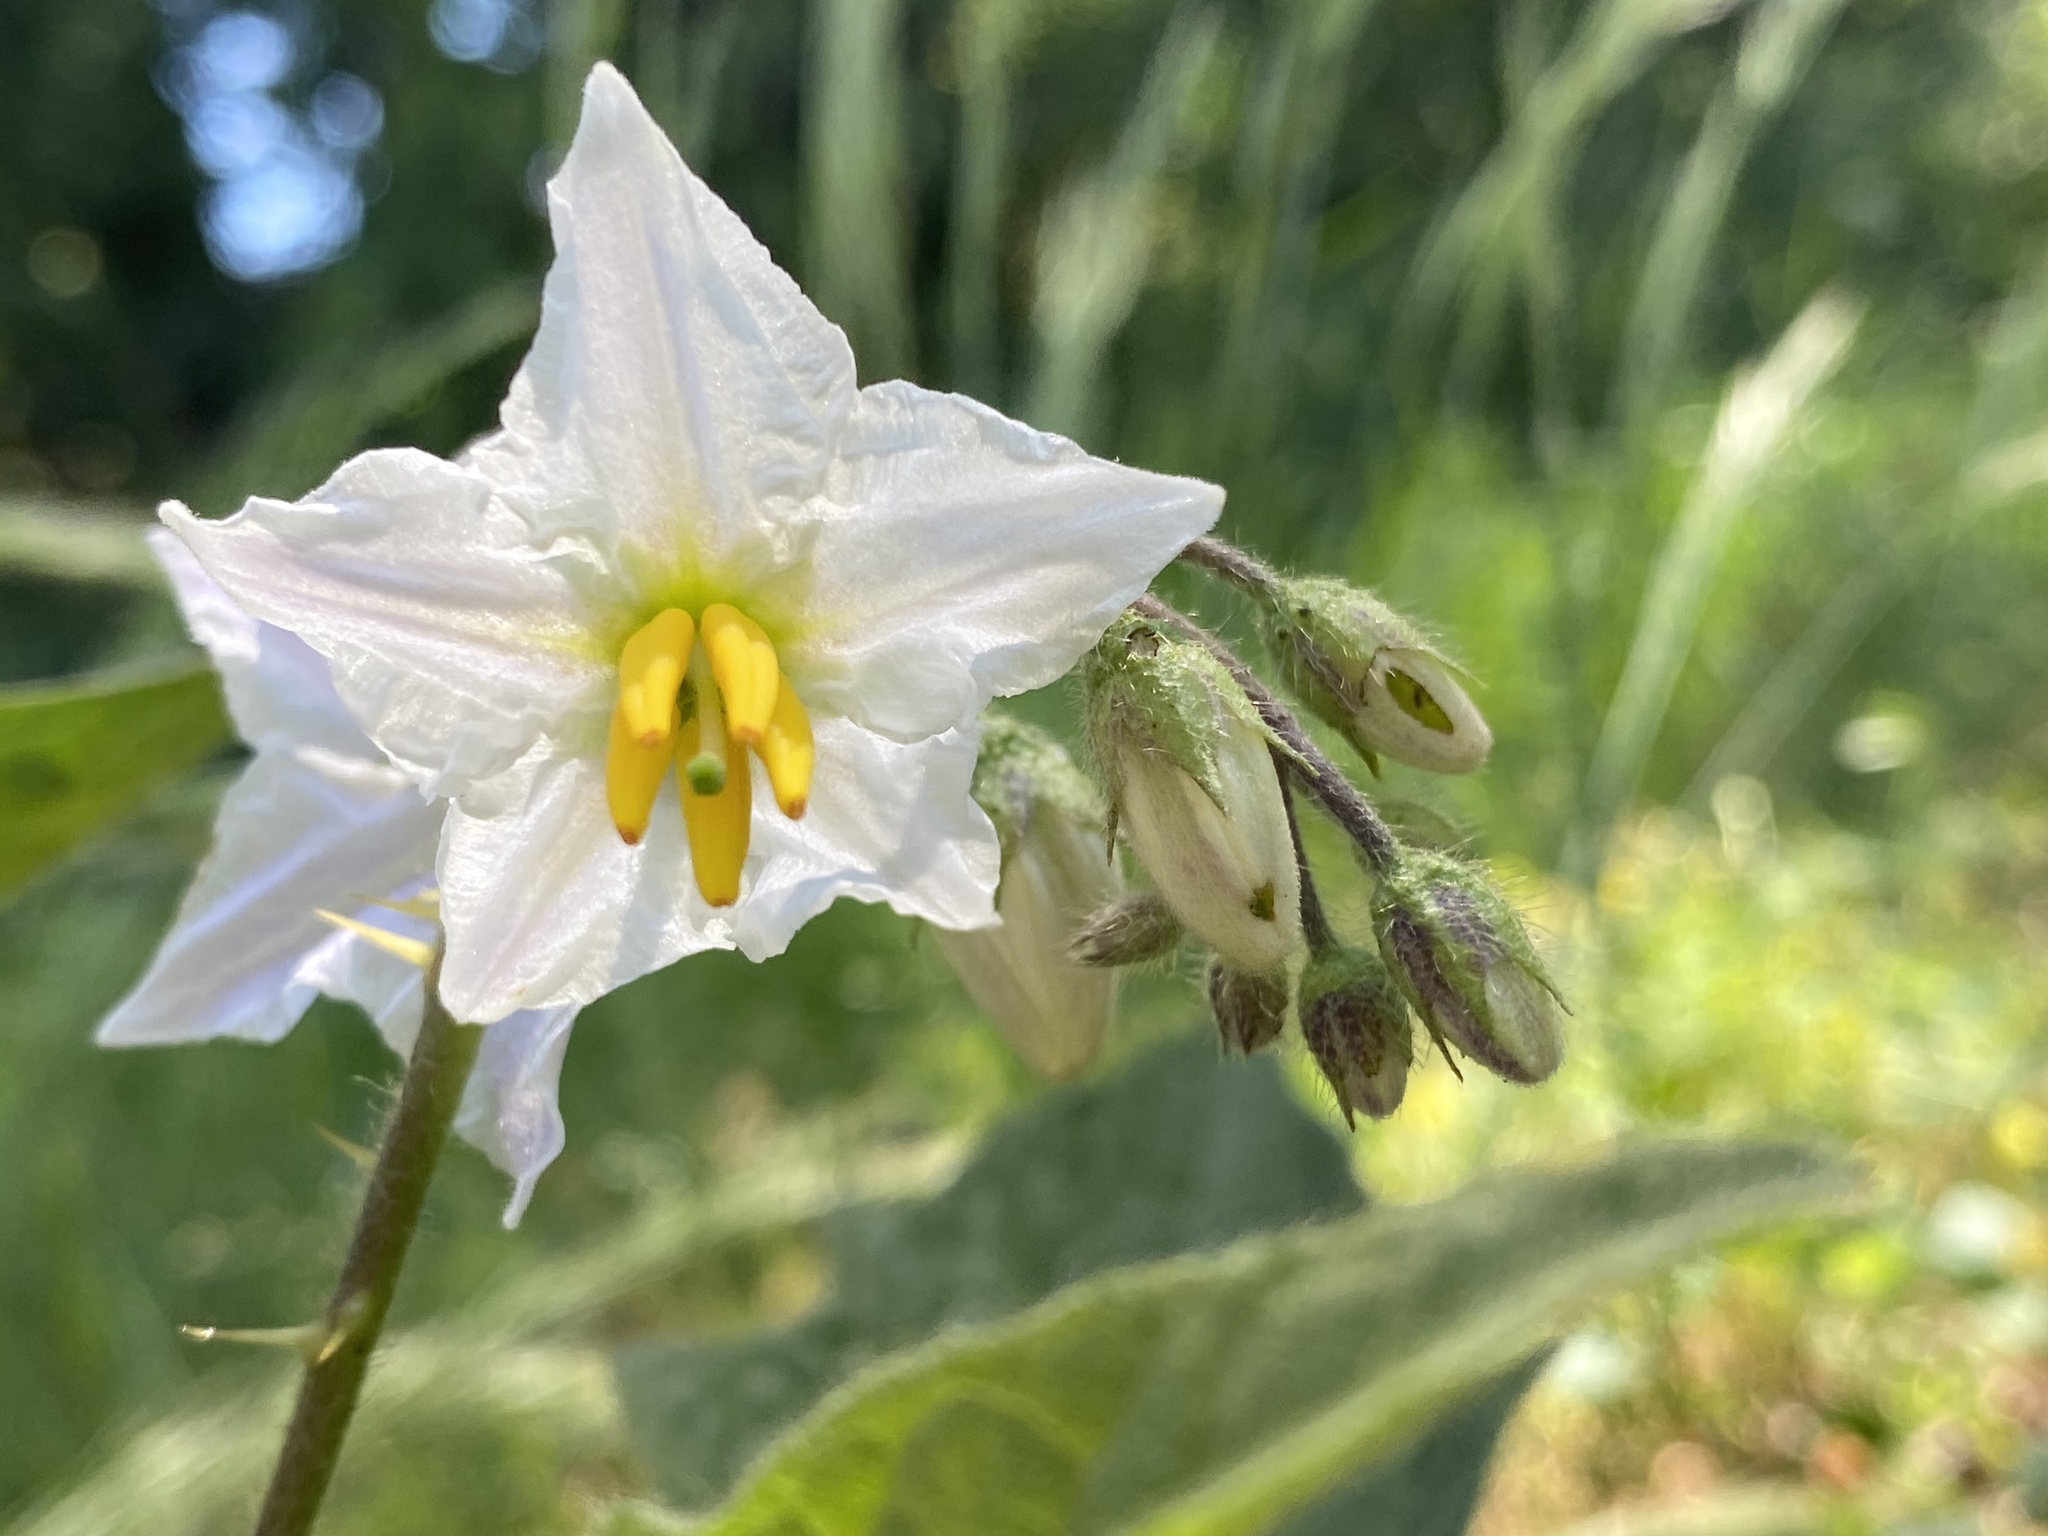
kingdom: Plantae
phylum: Tracheophyta
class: Magnoliopsida
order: Solanales
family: Solanaceae
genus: Solanum
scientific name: Solanum carolinense
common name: Horse-nettle
